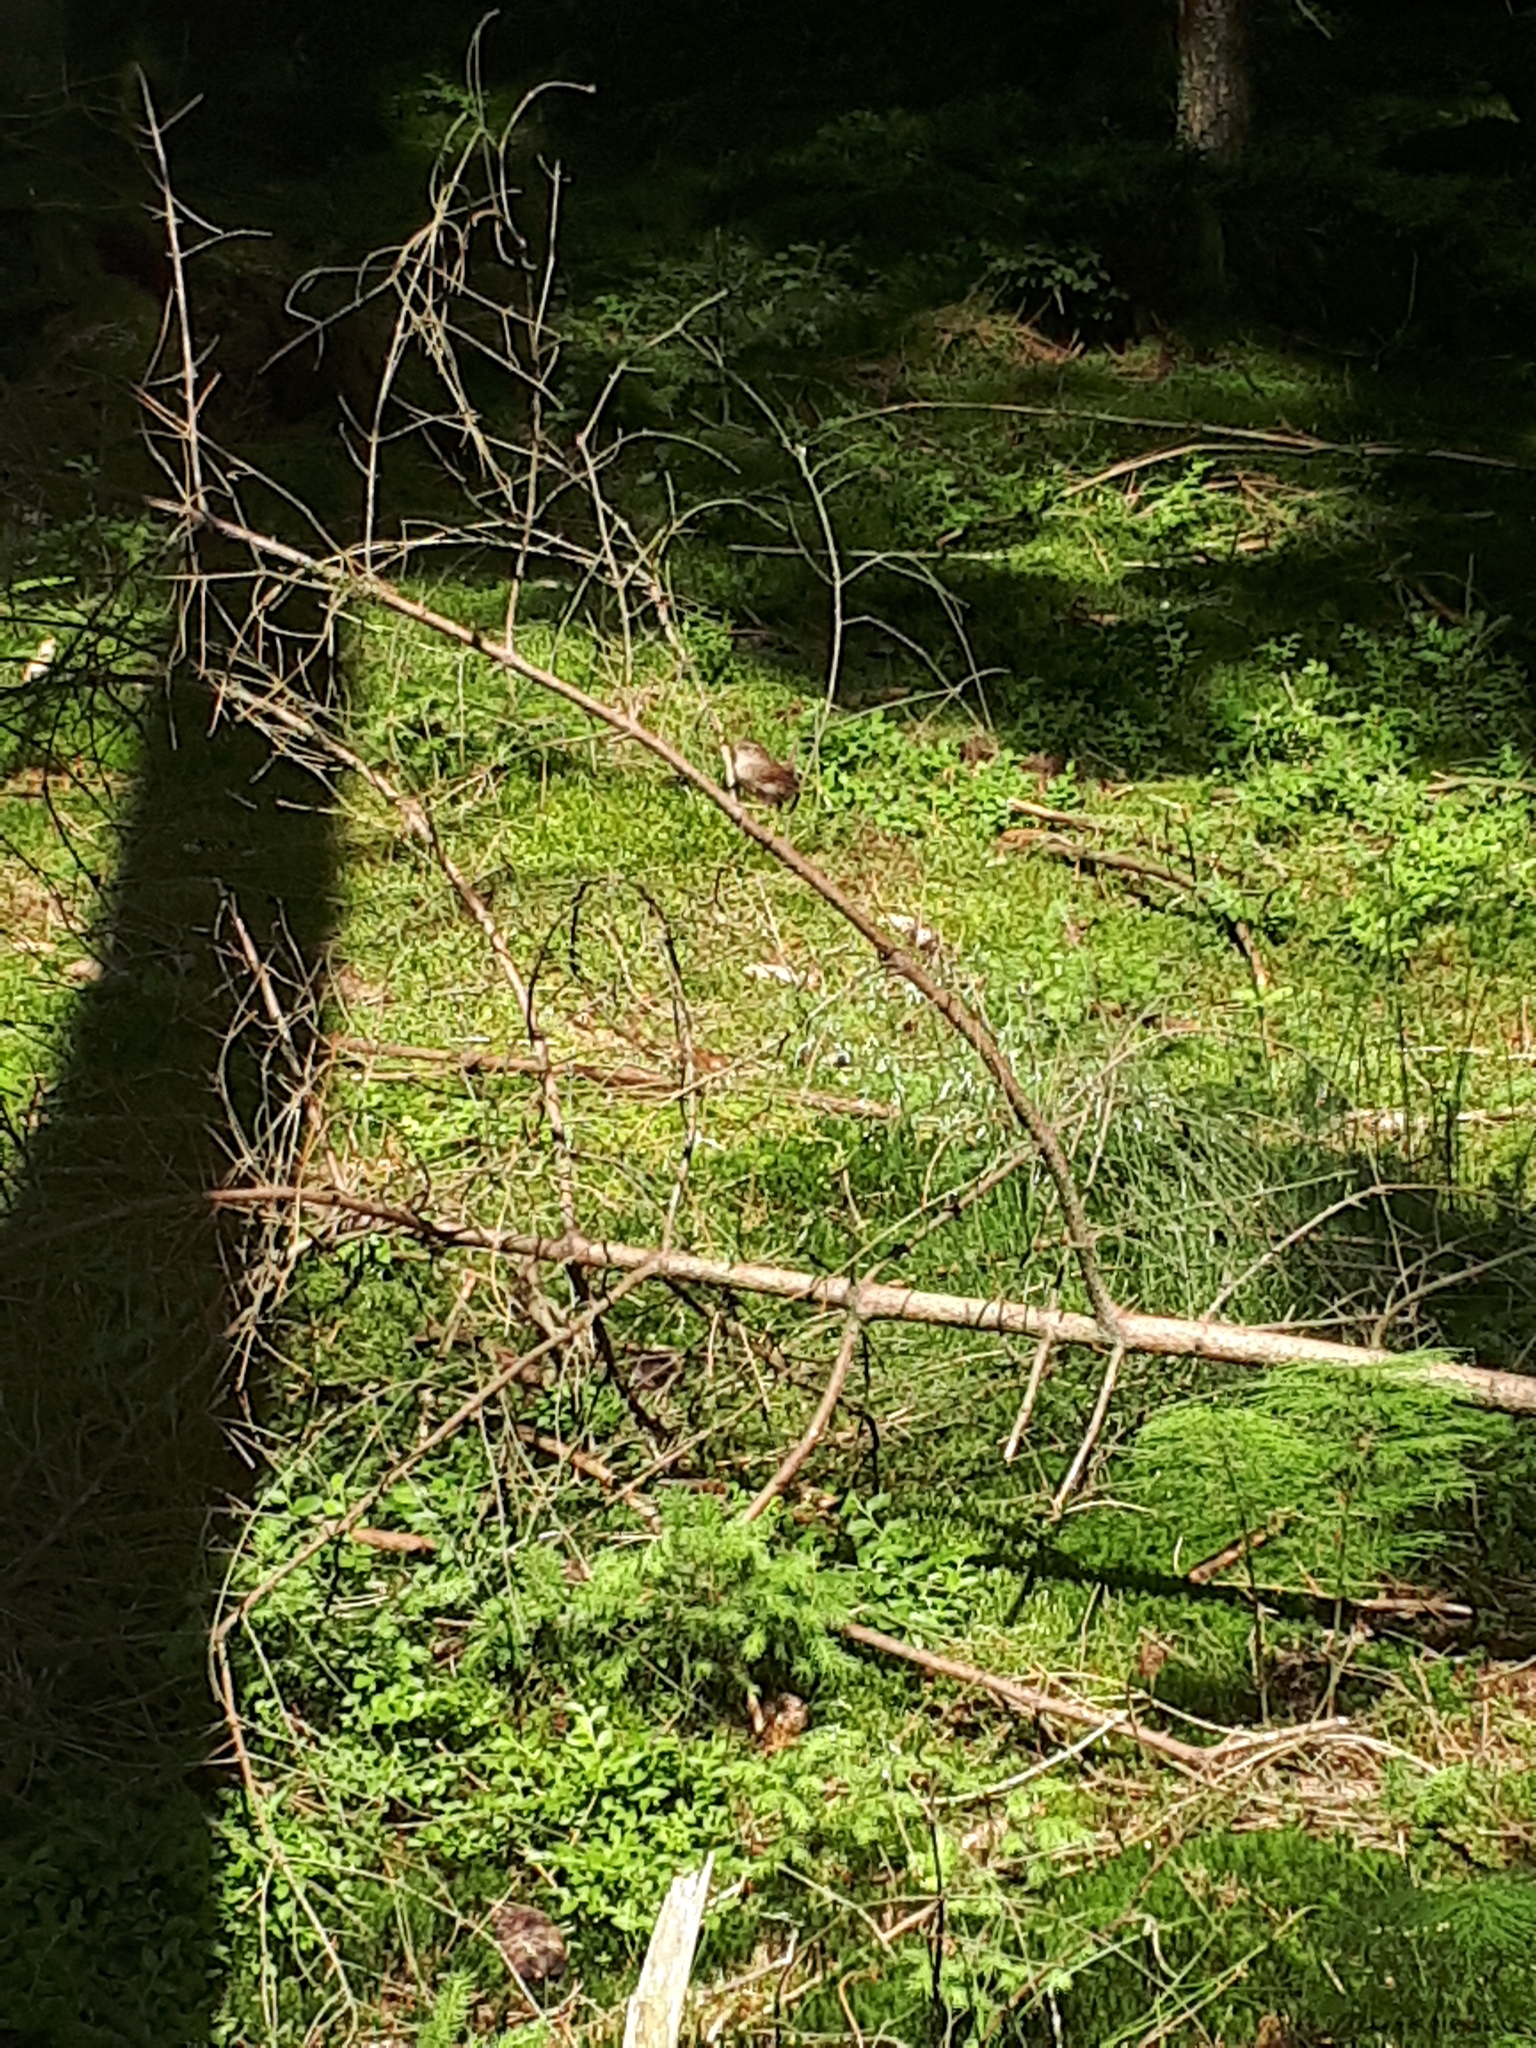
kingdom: Animalia
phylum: Chordata
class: Aves
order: Passeriformes
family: Troglodytidae
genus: Troglodytes
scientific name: Troglodytes troglodytes
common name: Eurasian wren
